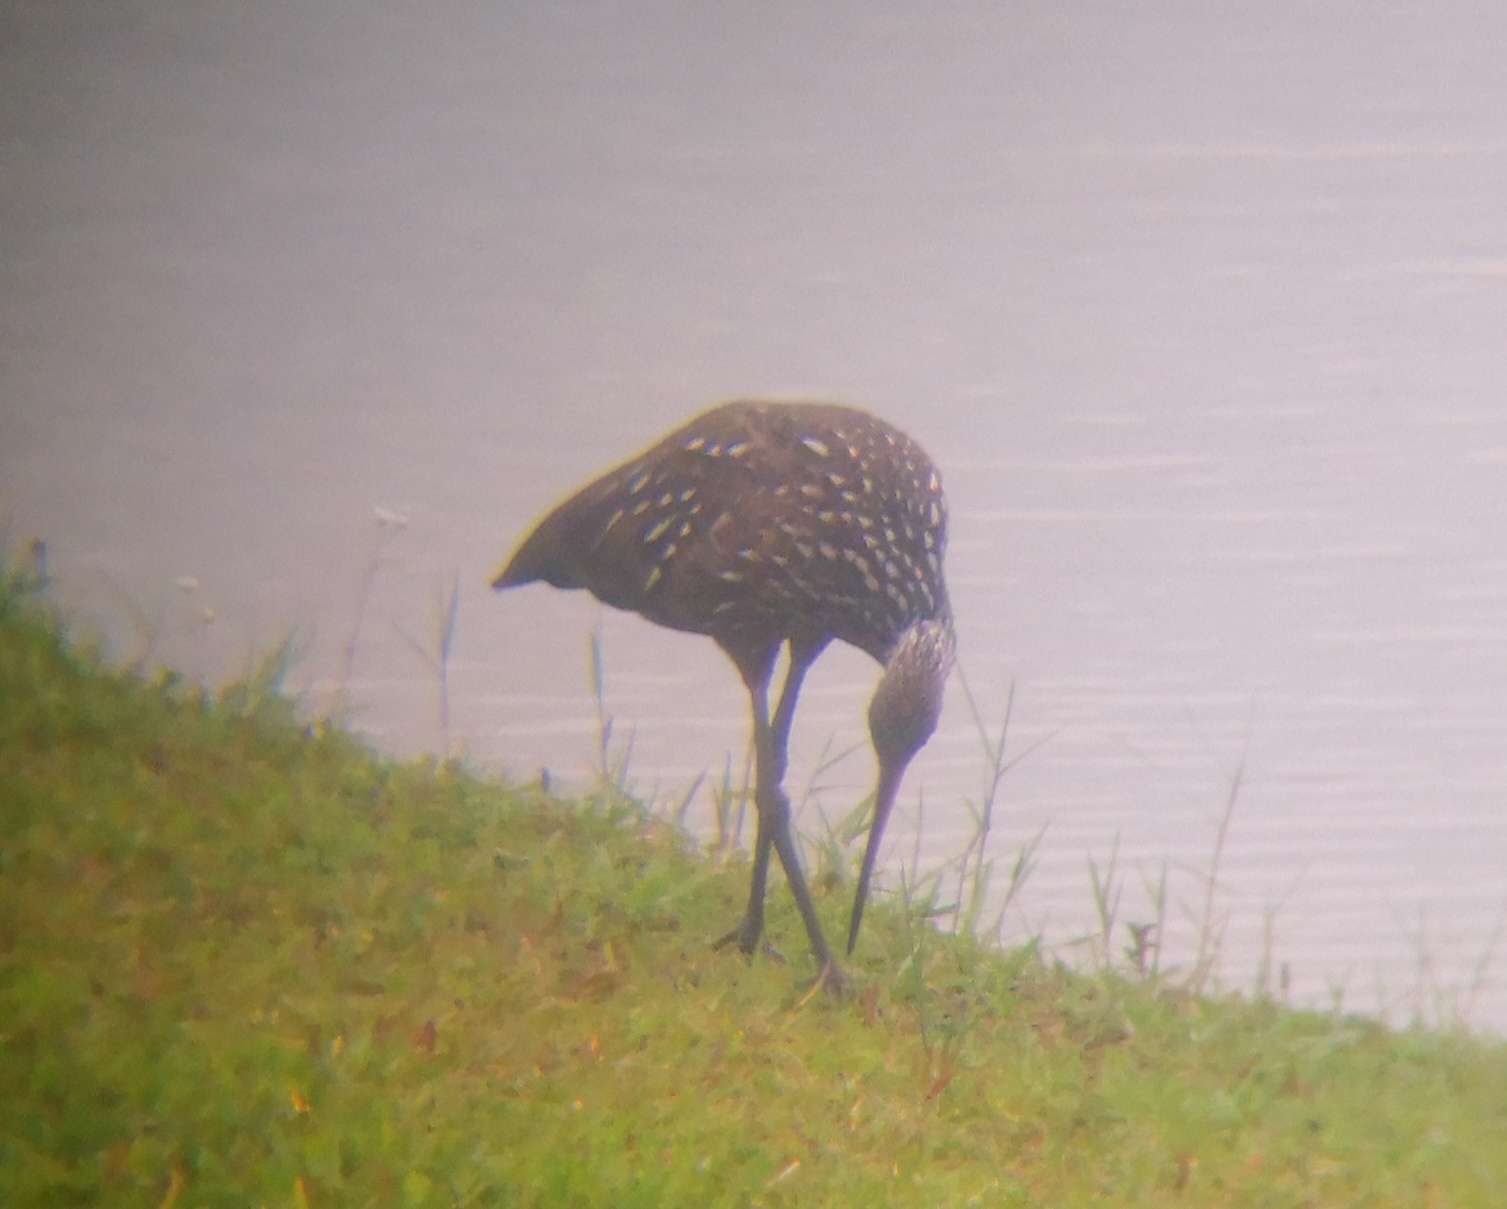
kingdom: Animalia
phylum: Chordata
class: Aves
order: Gruiformes
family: Aramidae
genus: Aramus
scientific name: Aramus guarauna
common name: Limpkin
